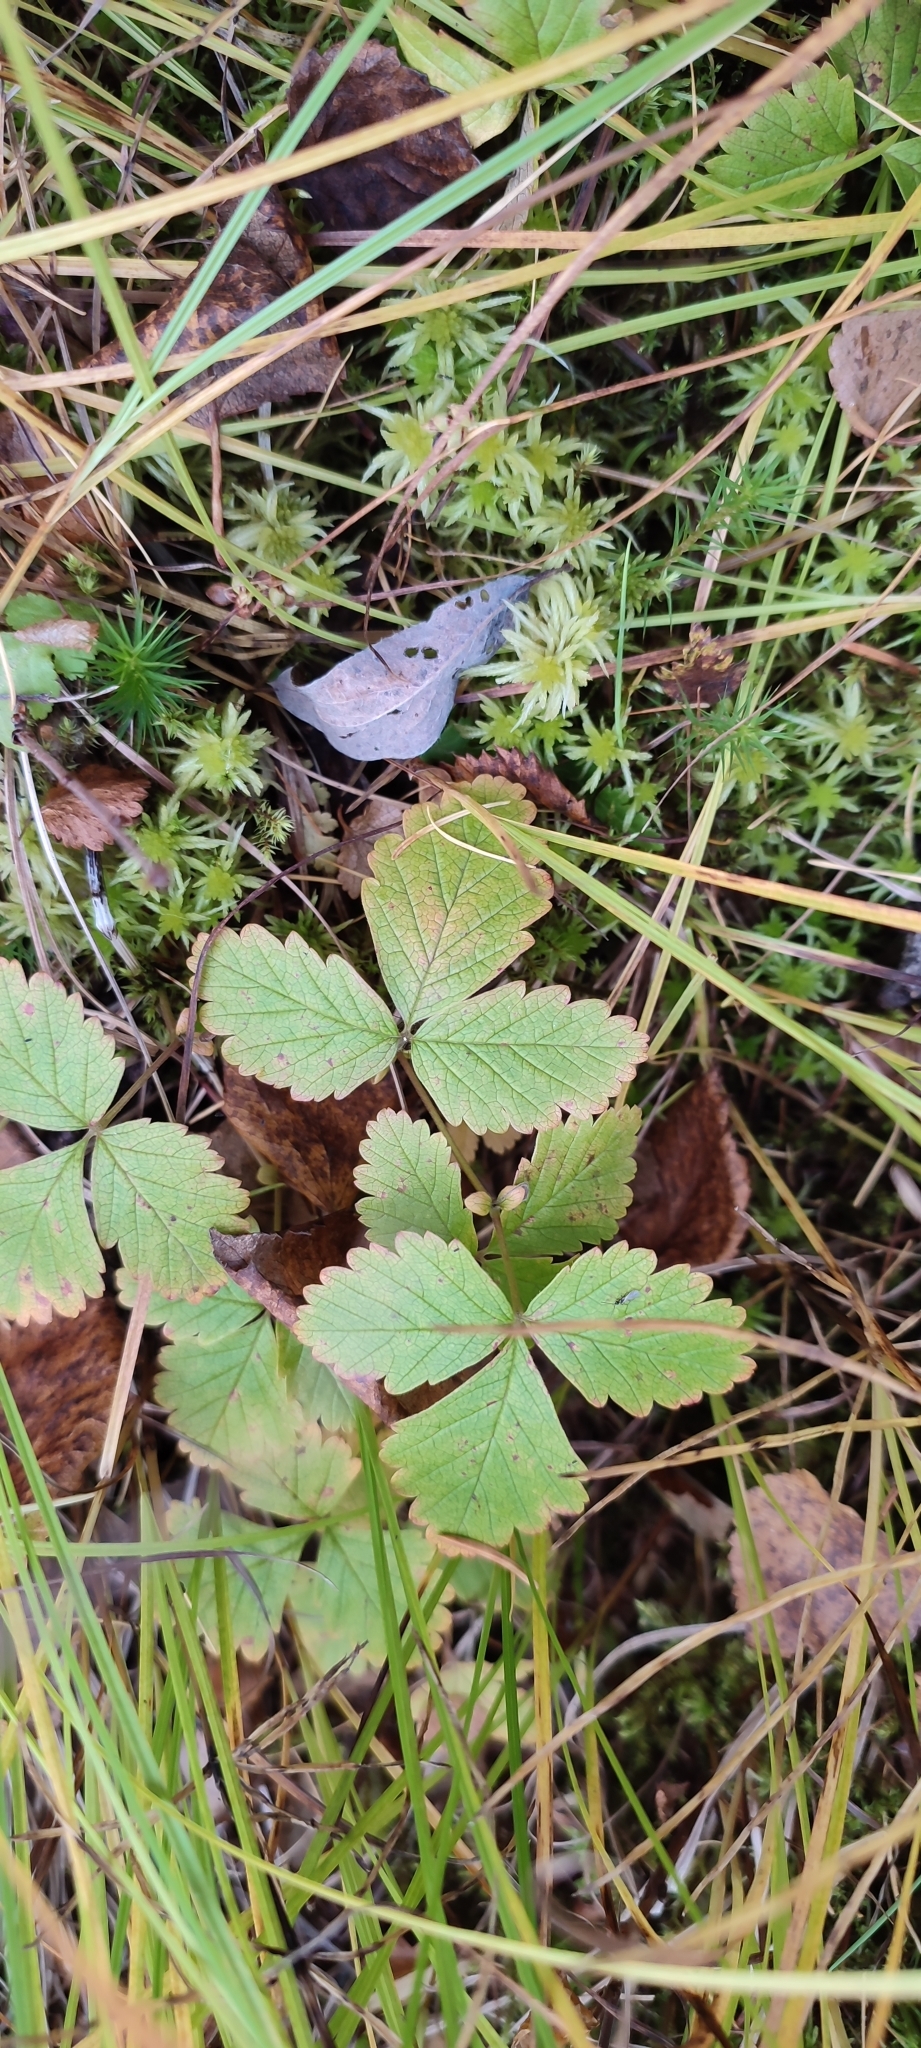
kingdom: Plantae
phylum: Tracheophyta
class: Magnoliopsida
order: Rosales
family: Rosaceae
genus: Rubus
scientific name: Rubus arcticus
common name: Arctic bramble
